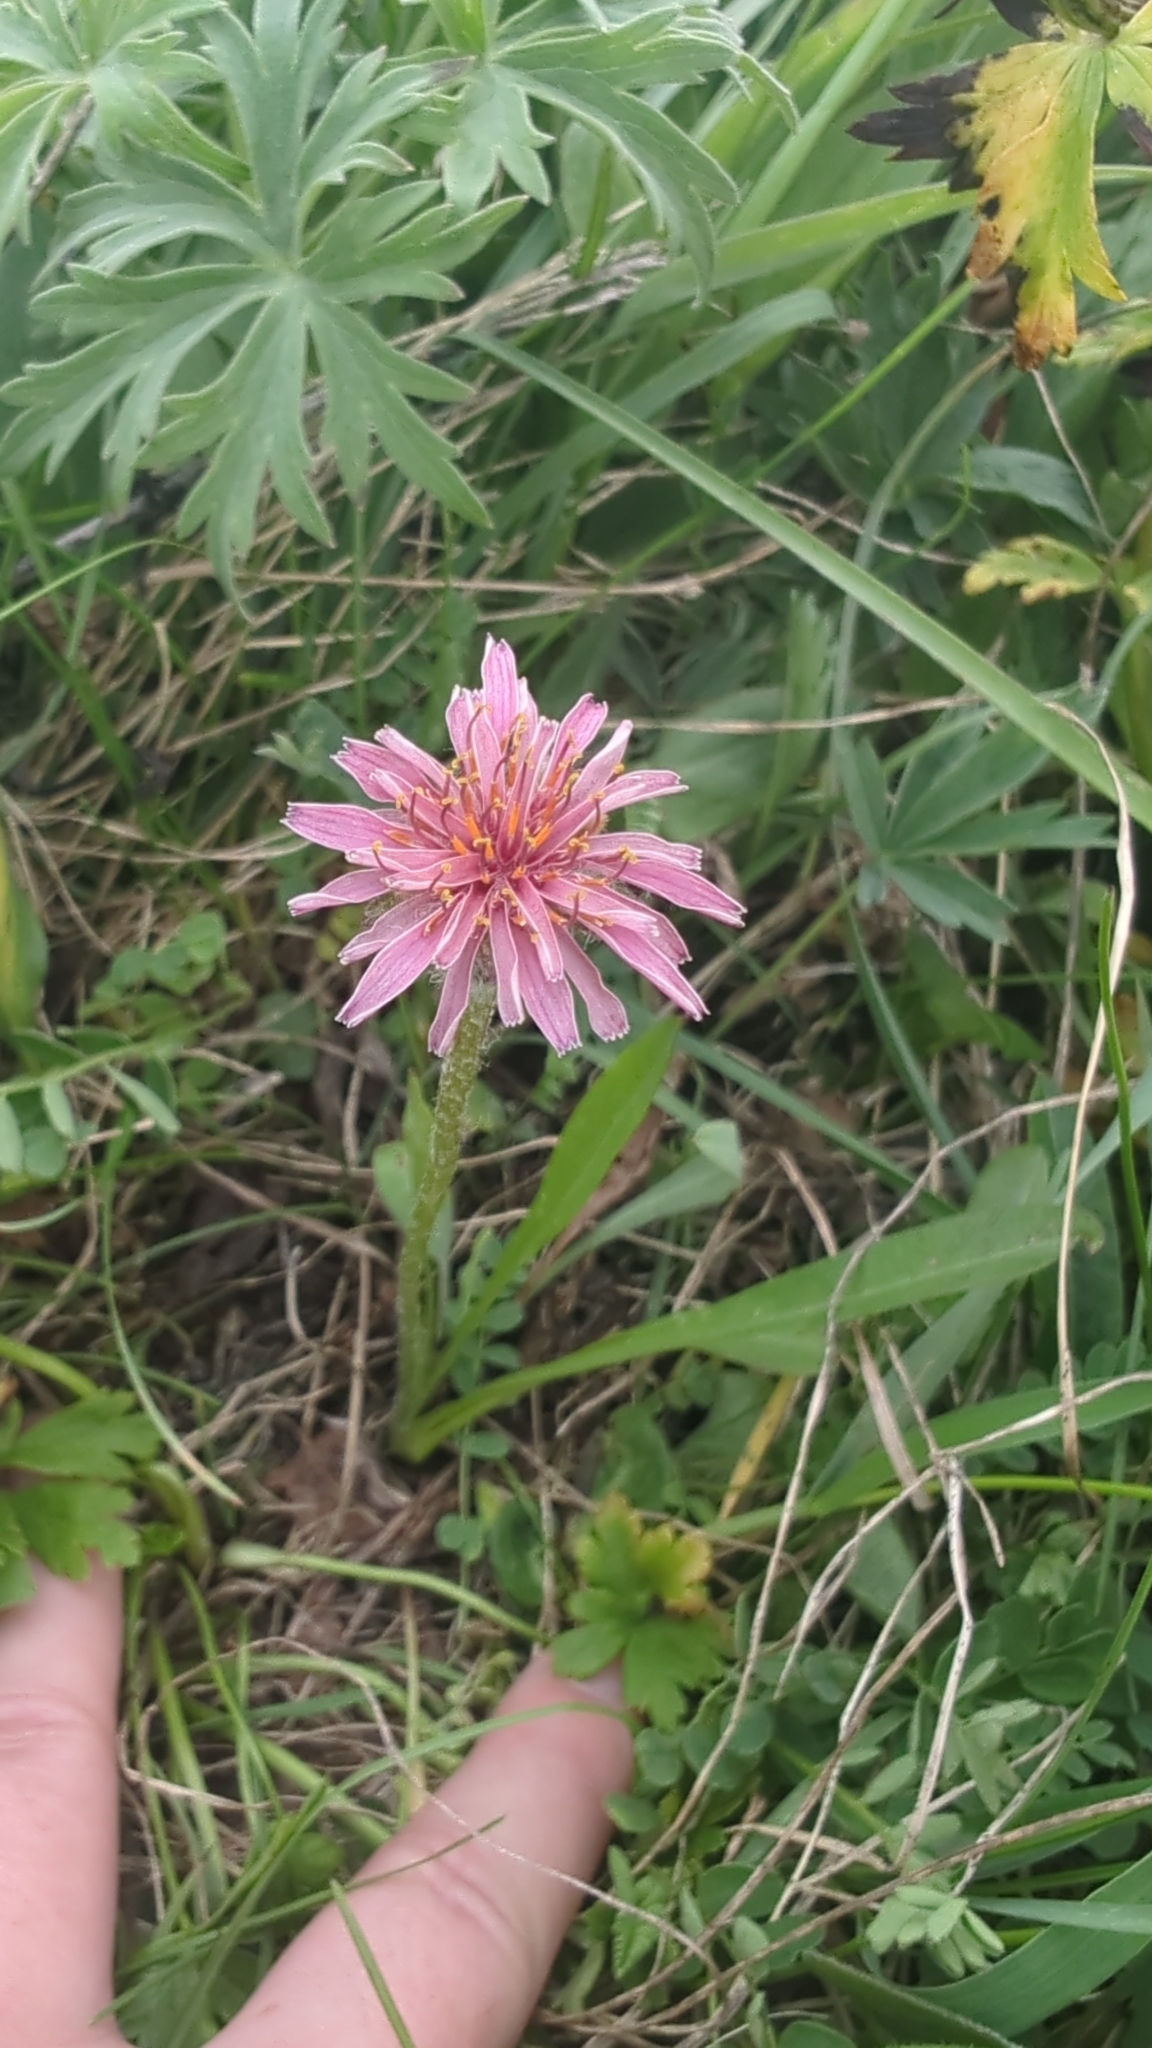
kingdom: Plantae
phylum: Tracheophyta
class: Magnoliopsida
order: Asterales
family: Asteraceae
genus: Agoseris
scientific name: Agoseris aurantiaca
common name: Mountain agoseris
